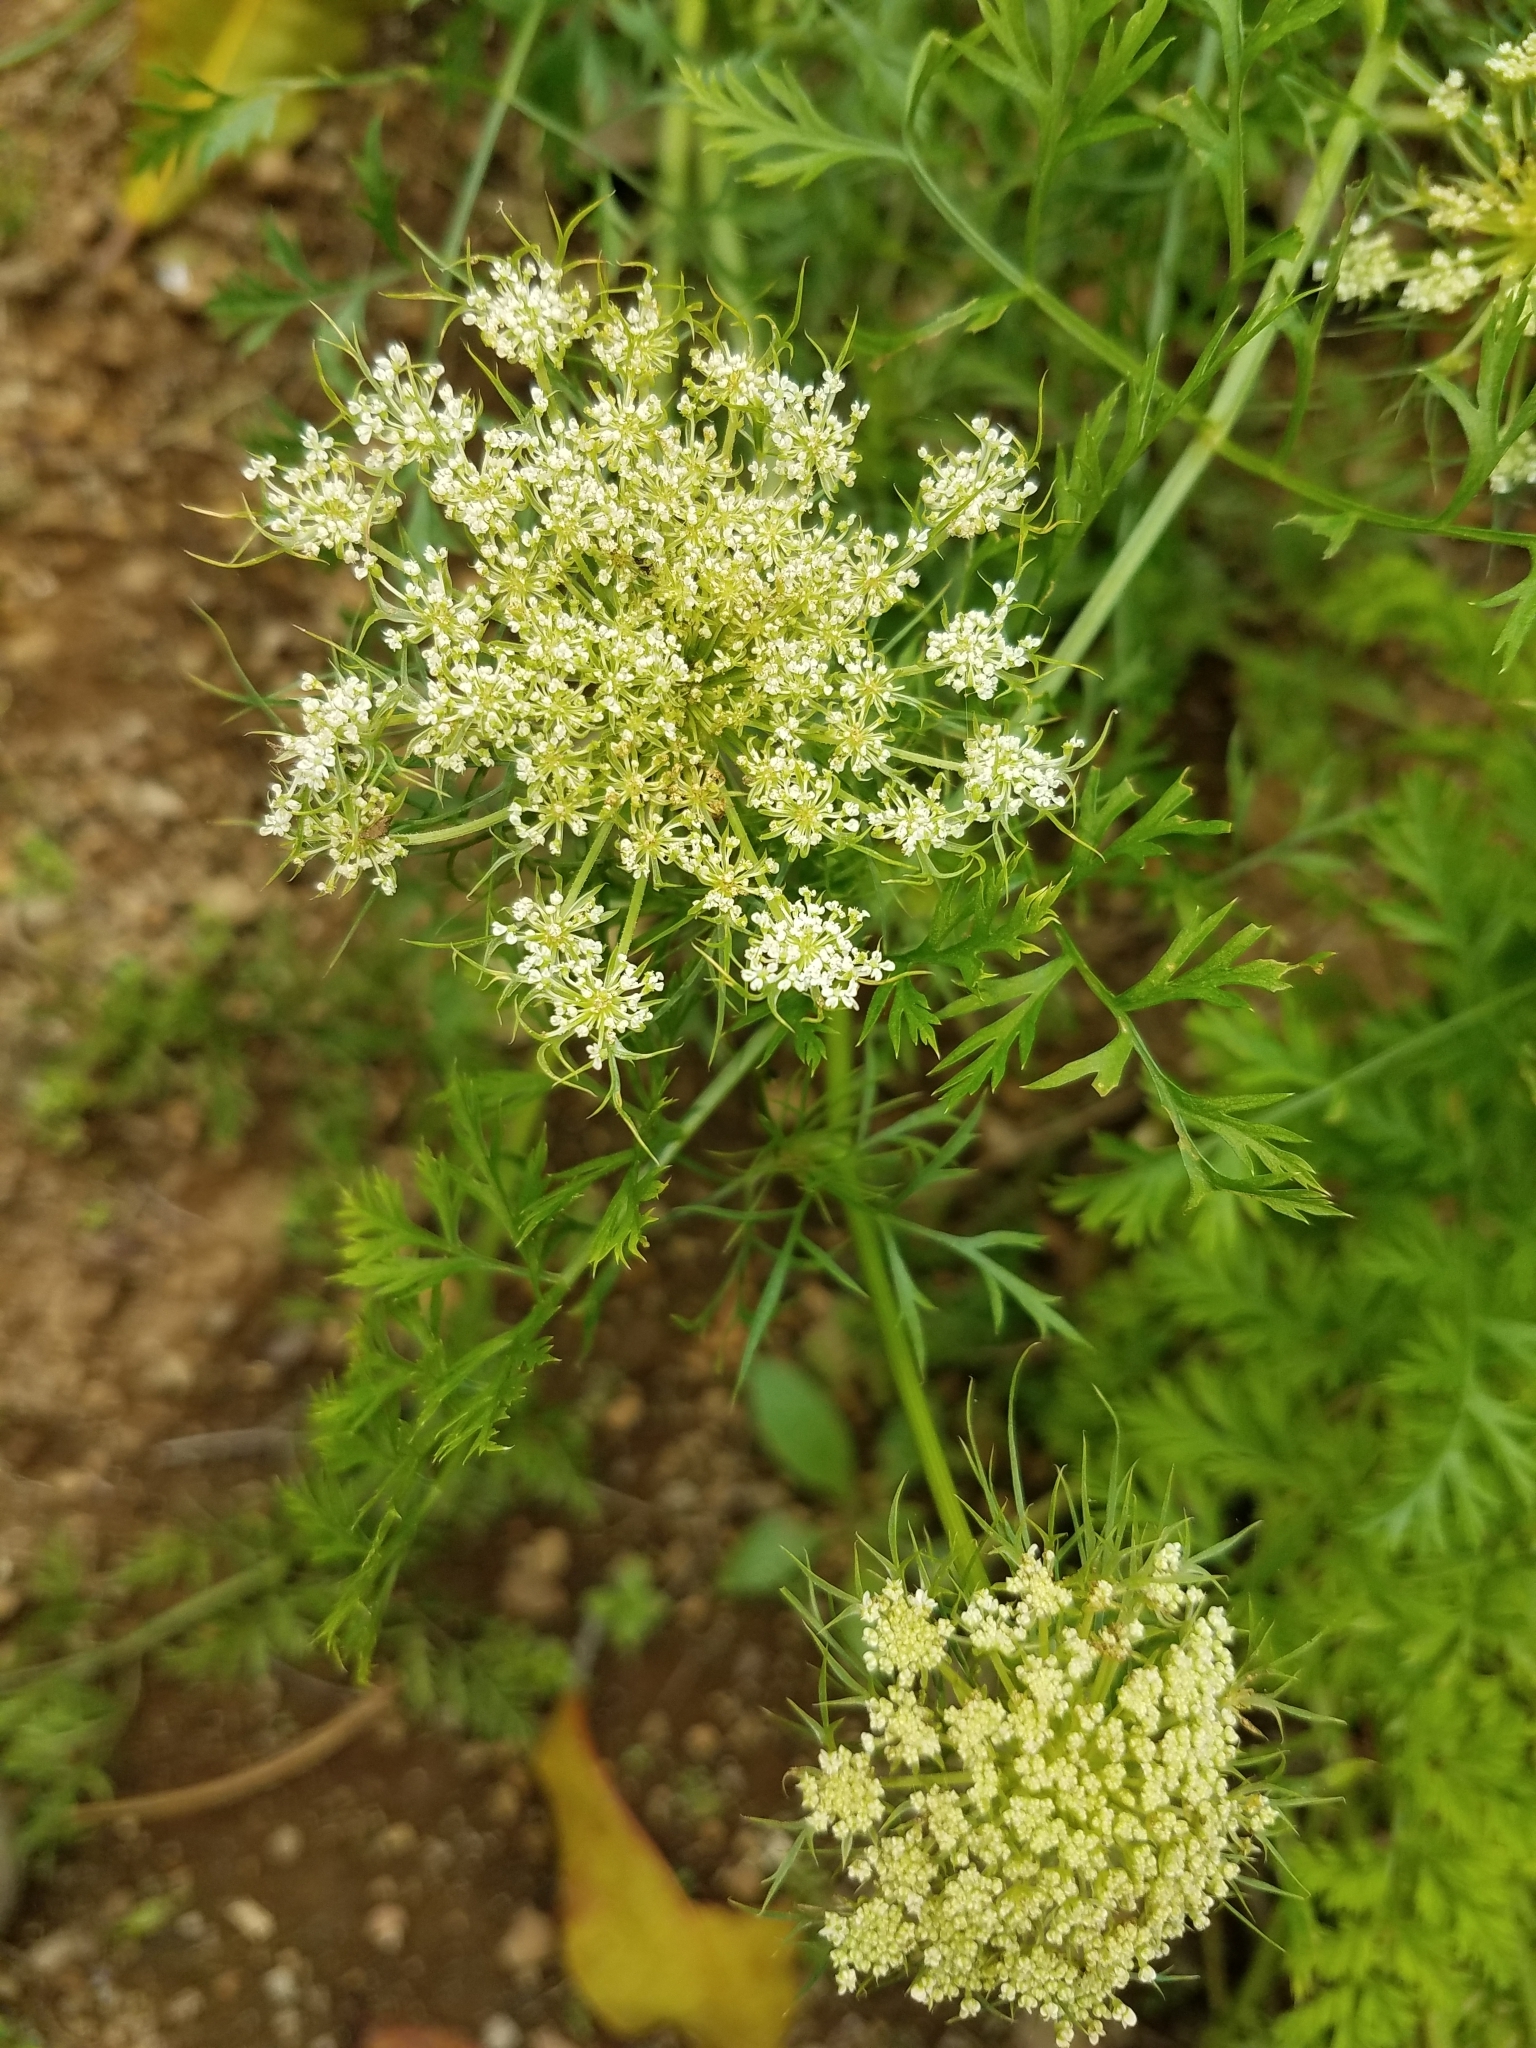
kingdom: Plantae
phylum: Tracheophyta
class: Magnoliopsida
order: Apiales
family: Apiaceae
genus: Daucus
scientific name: Daucus carota
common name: Wild carrot
